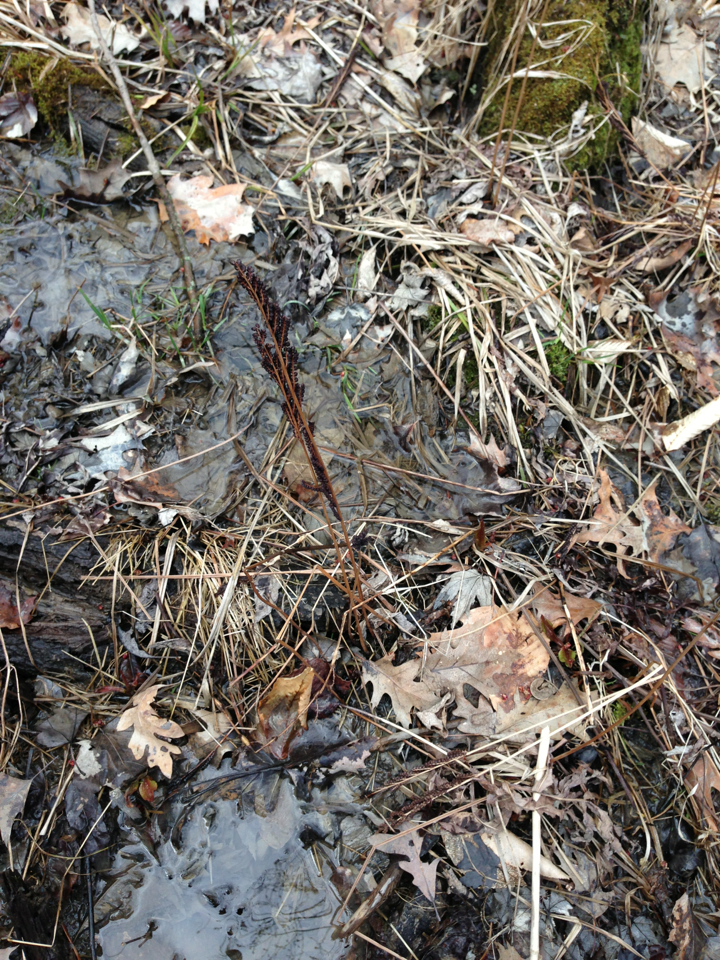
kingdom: Plantae
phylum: Tracheophyta
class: Polypodiopsida
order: Polypodiales
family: Onocleaceae
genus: Onoclea
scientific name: Onoclea sensibilis
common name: Sensitive fern
